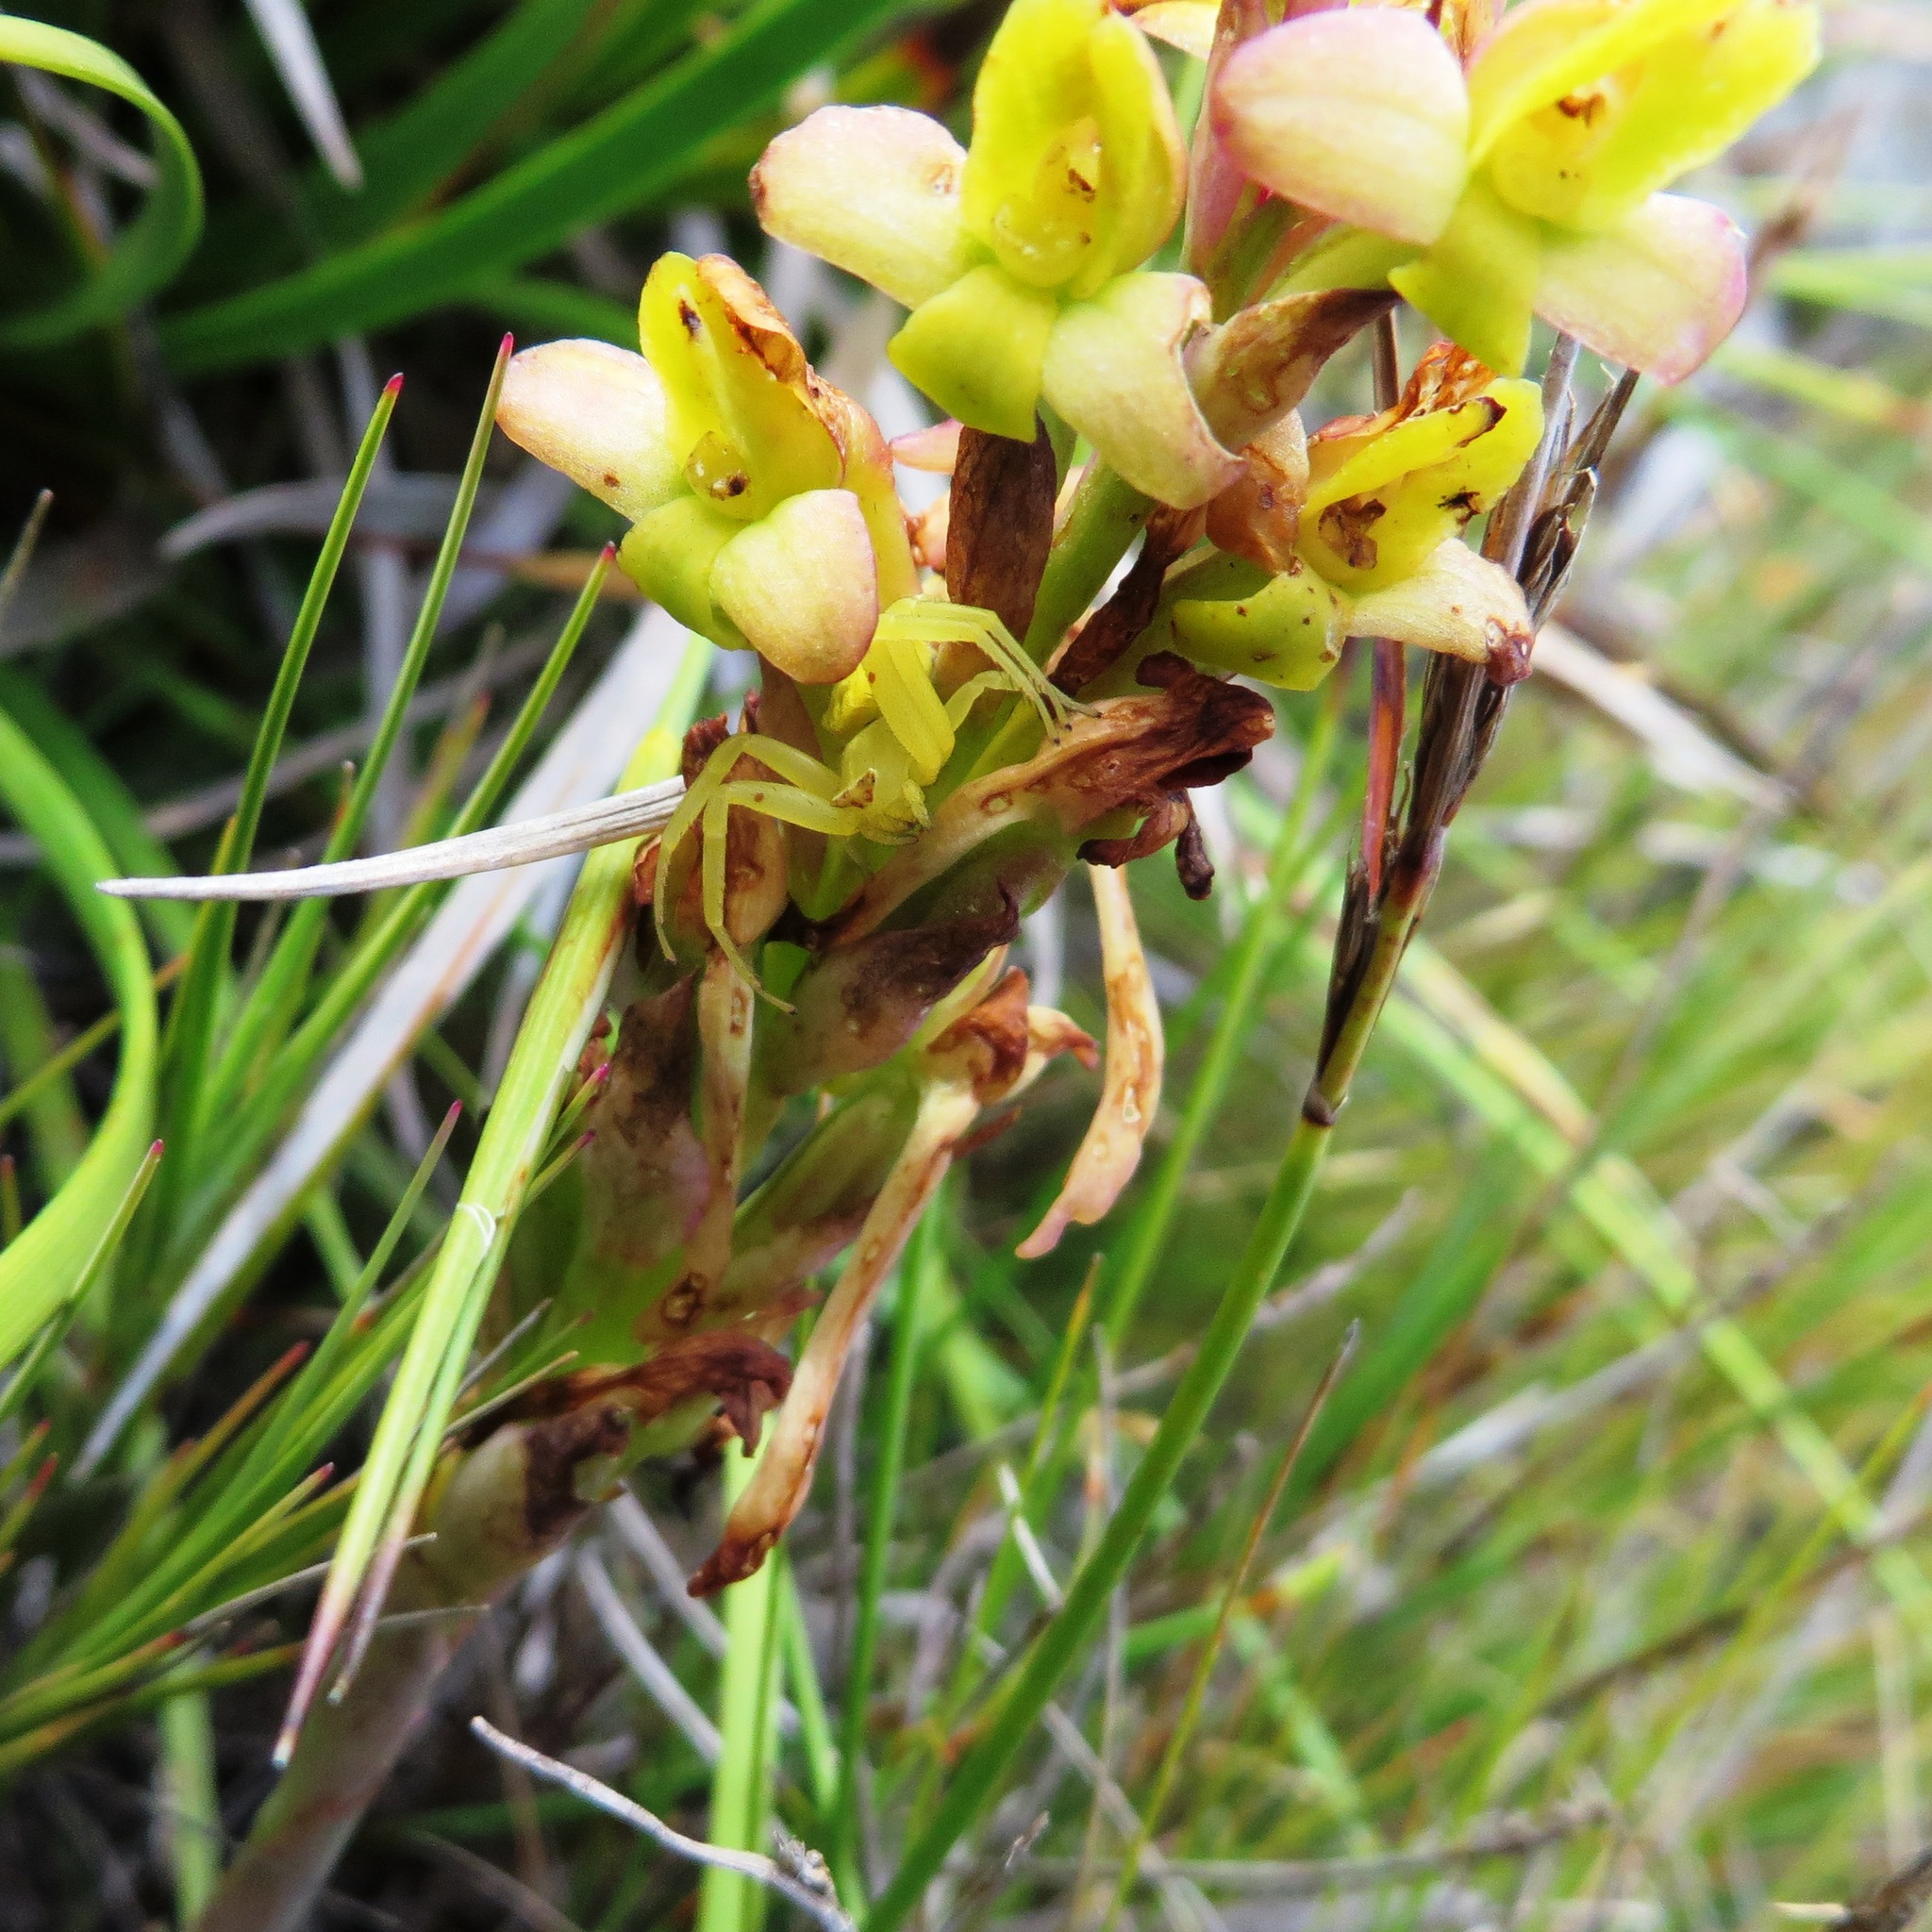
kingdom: Plantae
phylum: Tracheophyta
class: Liliopsida
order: Asparagales
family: Orchidaceae
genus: Disa
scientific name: Disa bolusiana
